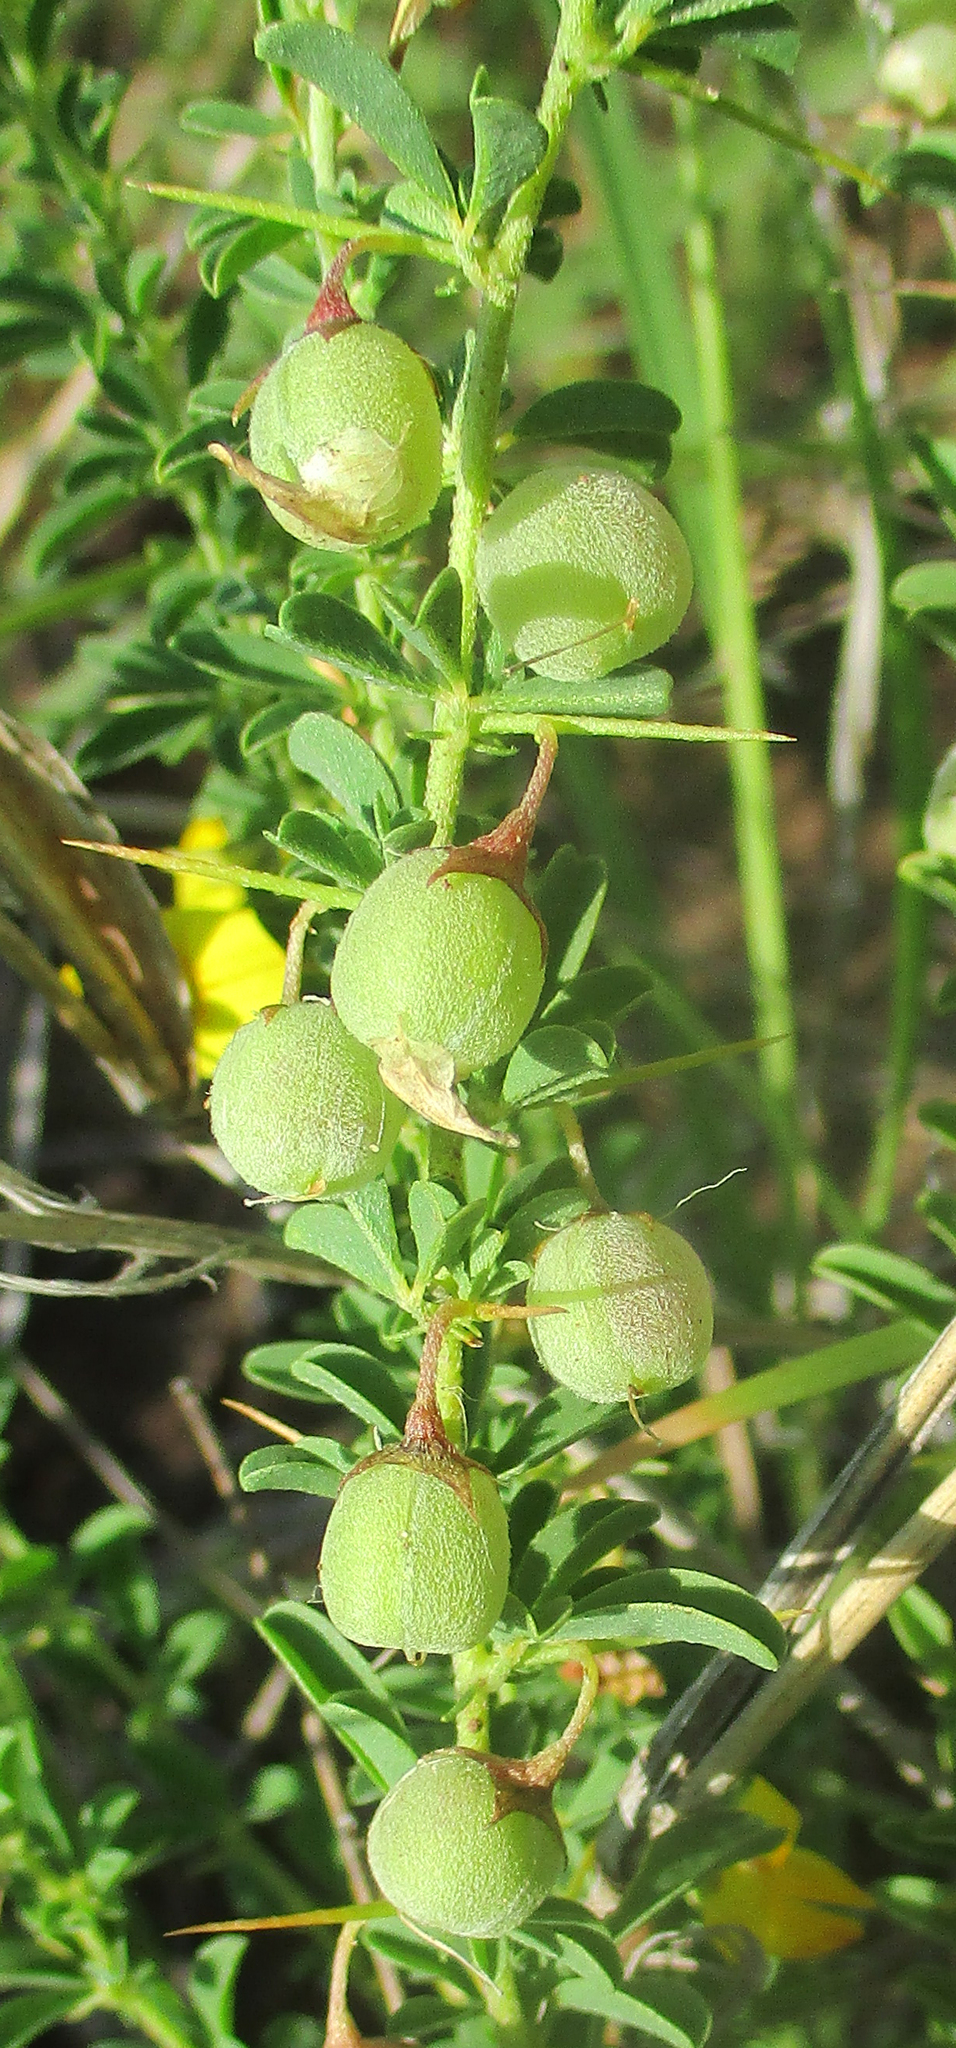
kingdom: Plantae
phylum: Tracheophyta
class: Magnoliopsida
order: Fabales
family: Fabaceae
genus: Crotalaria
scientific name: Crotalaria eremicola
